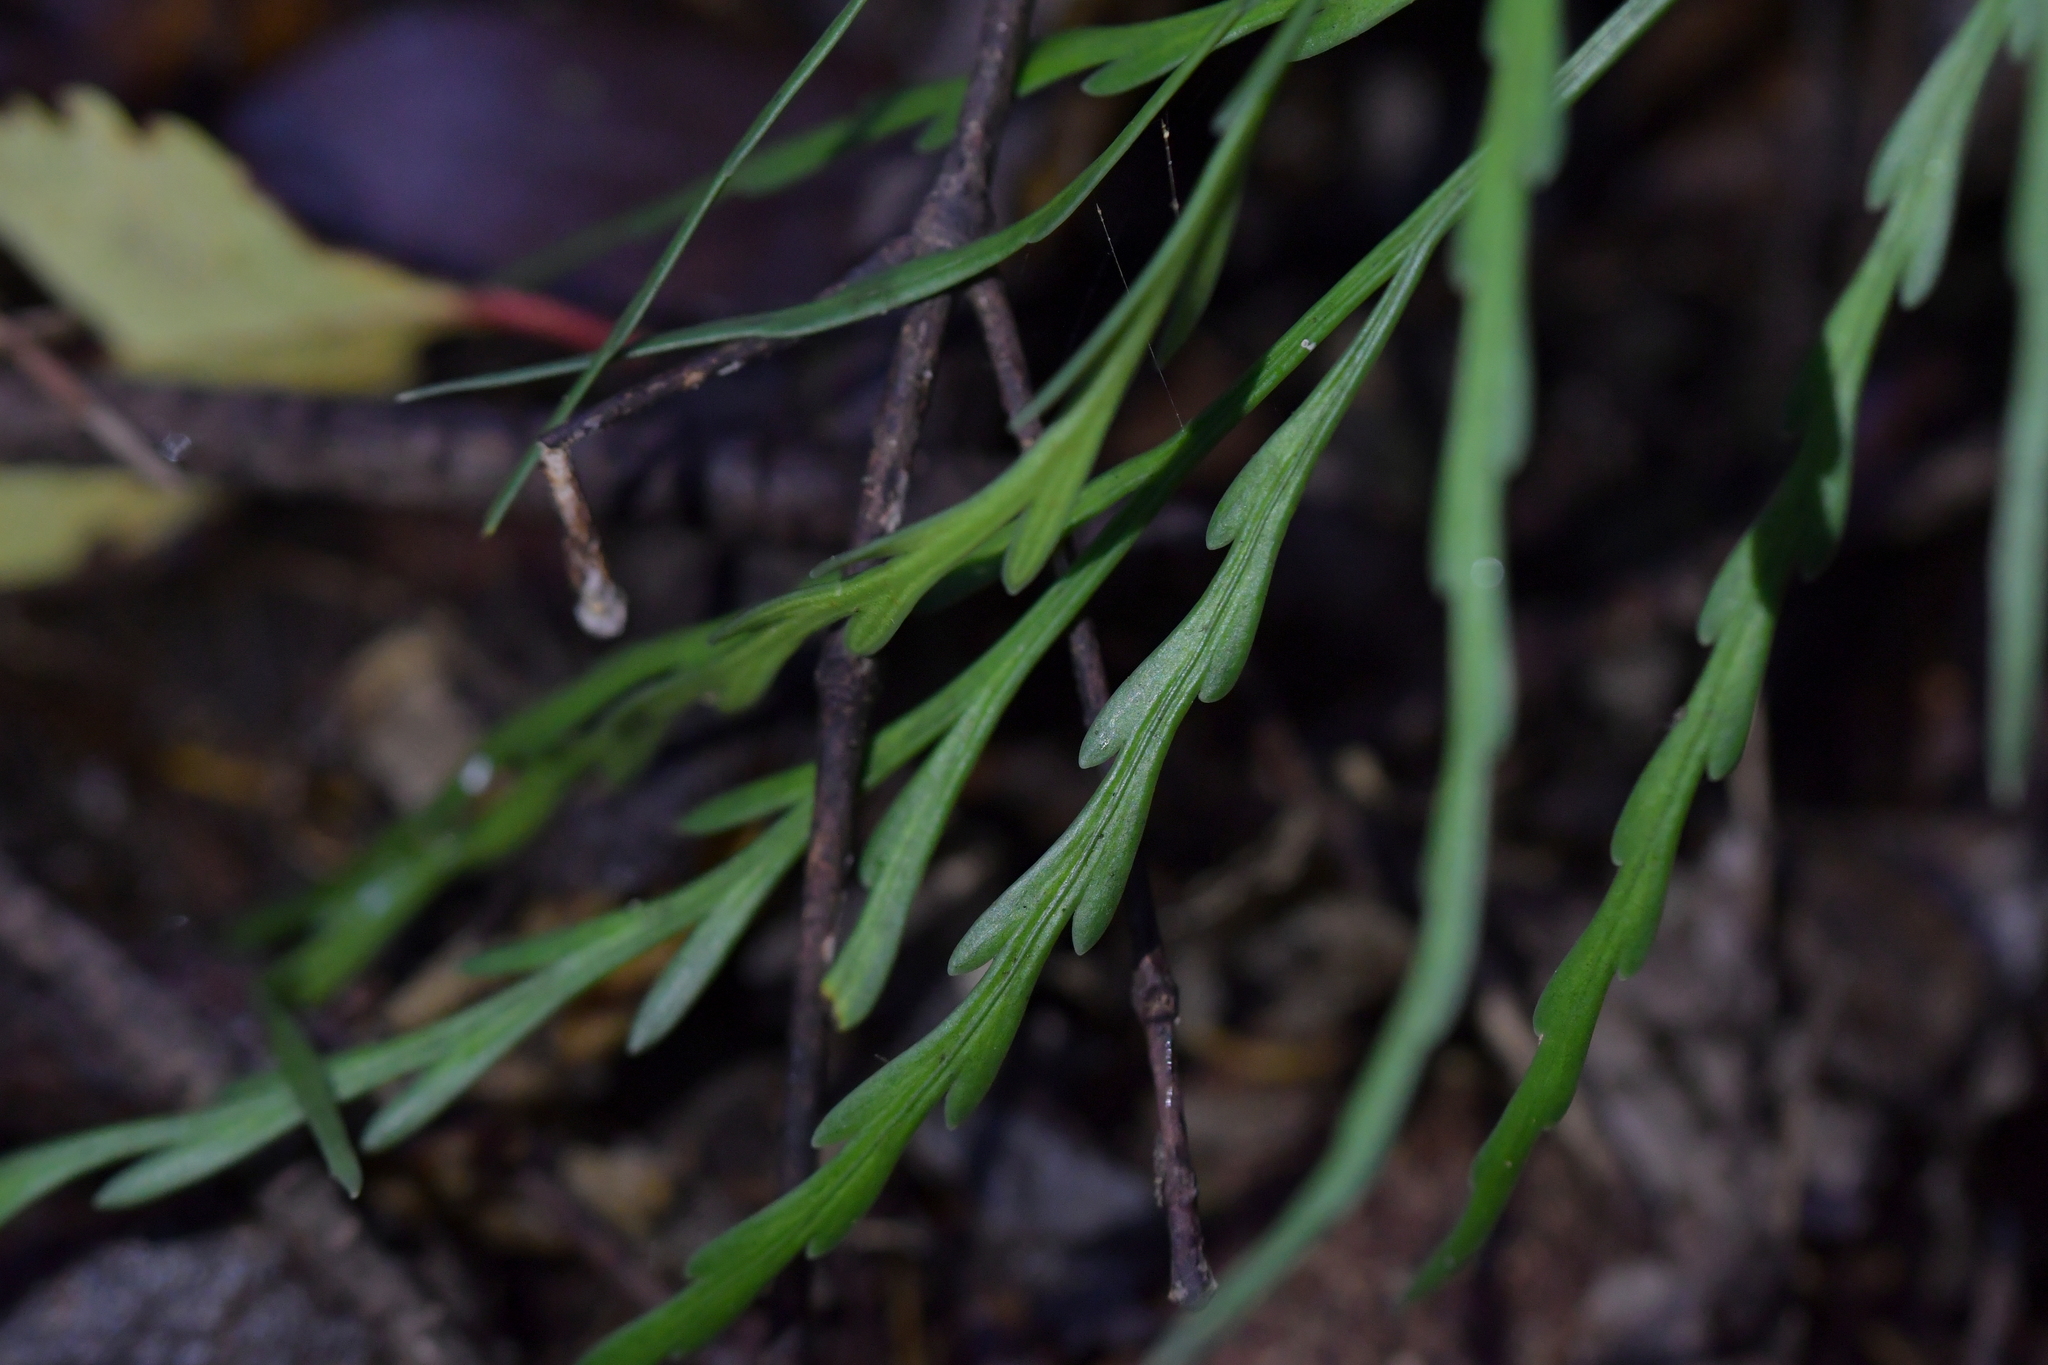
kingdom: Plantae
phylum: Tracheophyta
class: Polypodiopsida
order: Polypodiales
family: Aspleniaceae
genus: Asplenium
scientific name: Asplenium flaccidum
